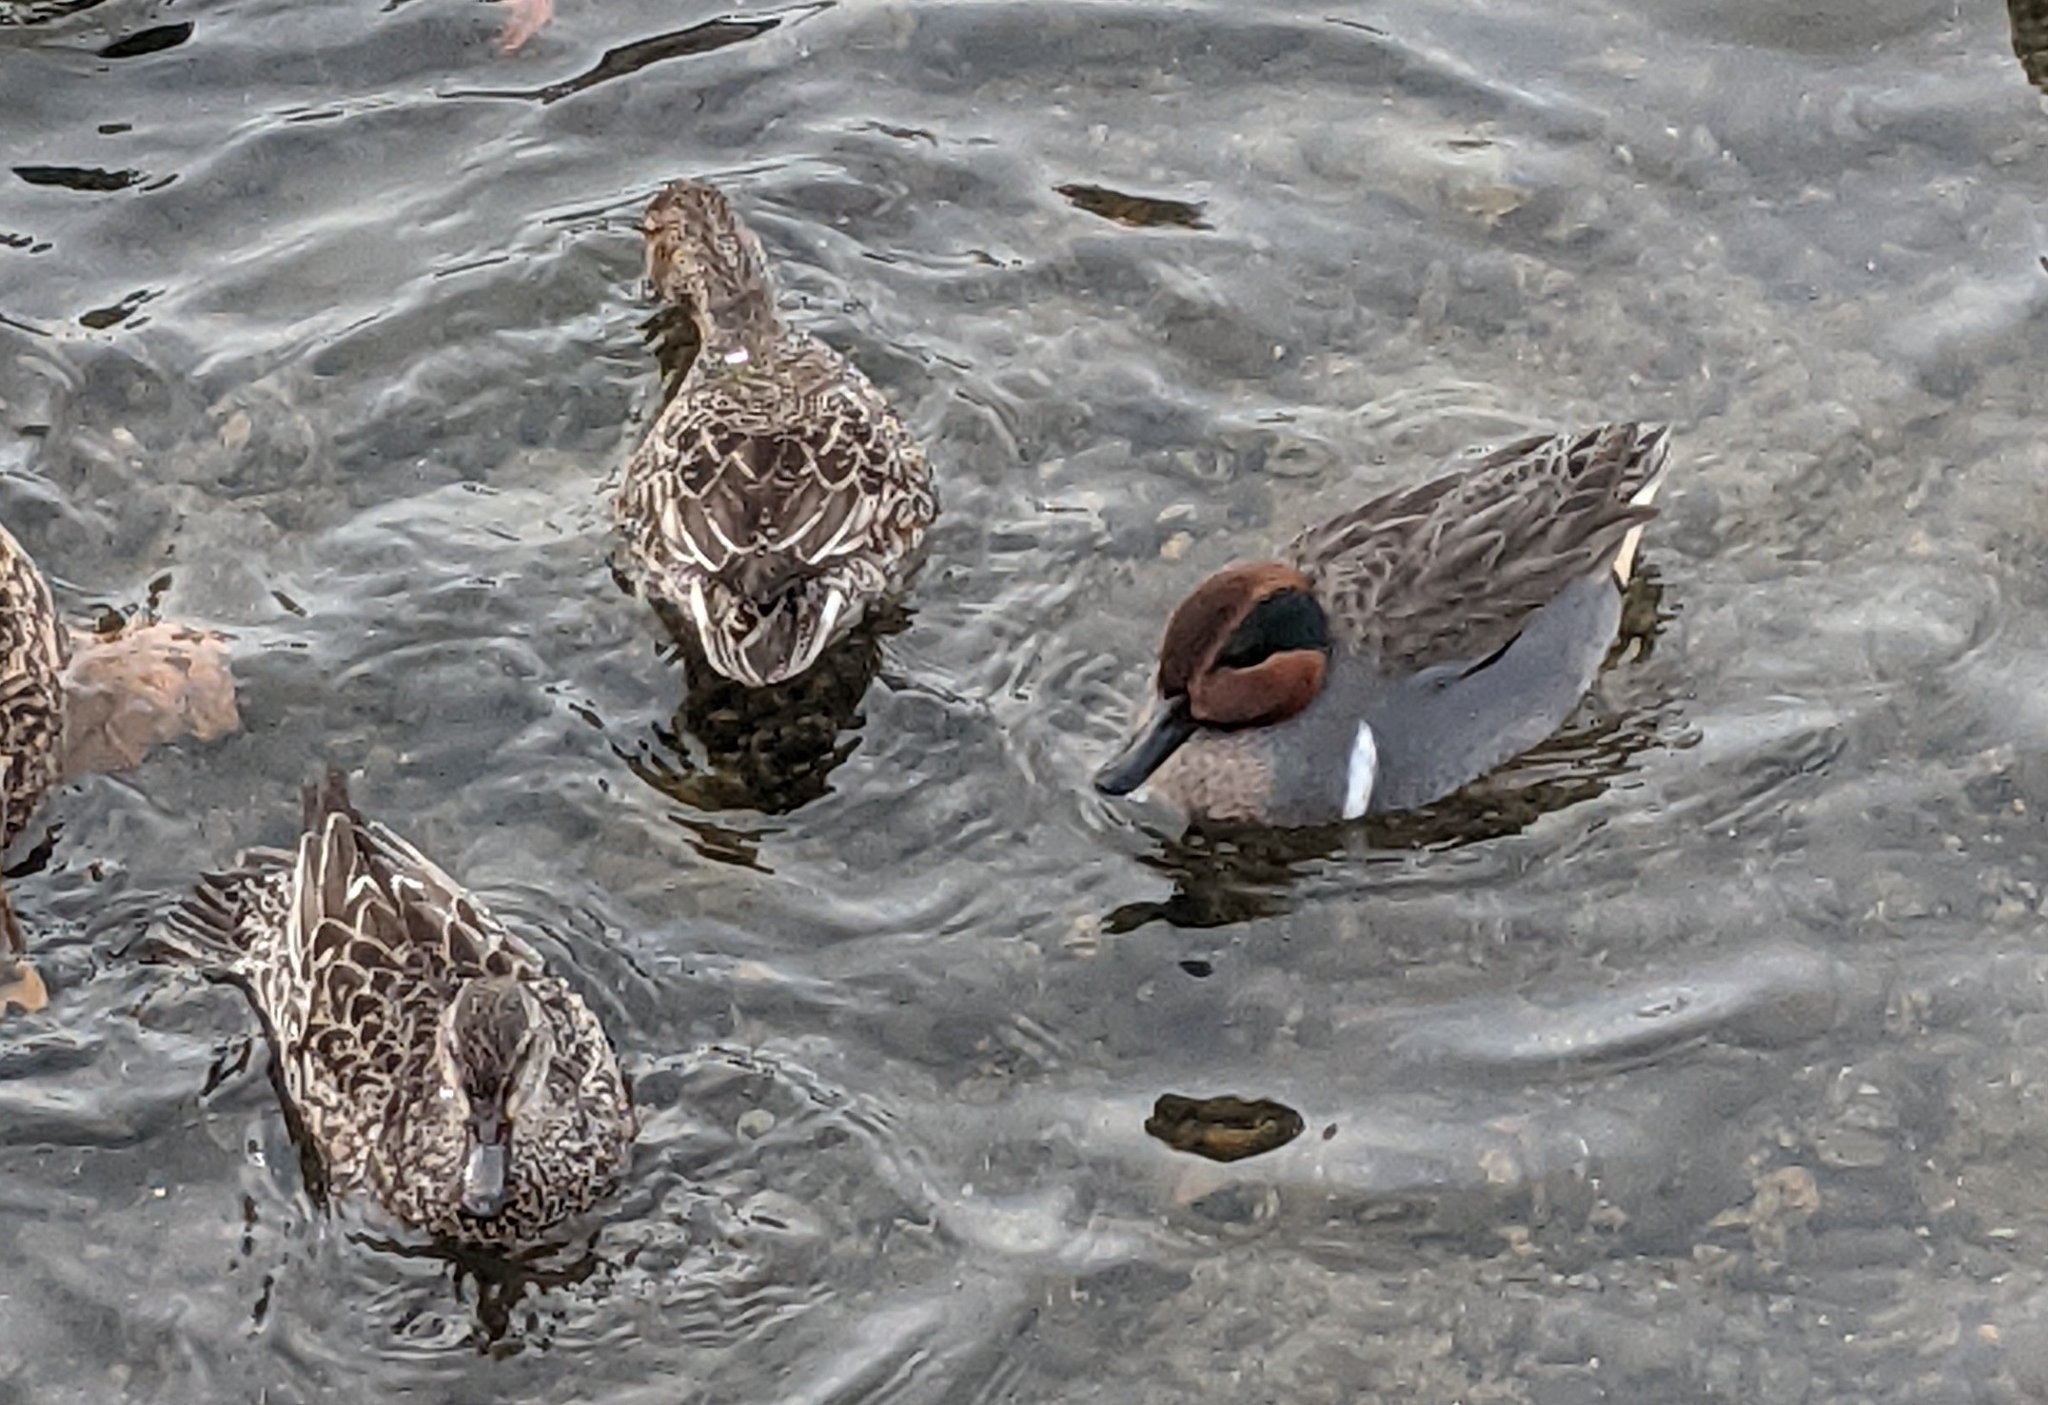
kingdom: Animalia
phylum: Chordata
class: Aves
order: Anseriformes
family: Anatidae
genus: Anas
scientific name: Anas crecca
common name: Eurasian teal
